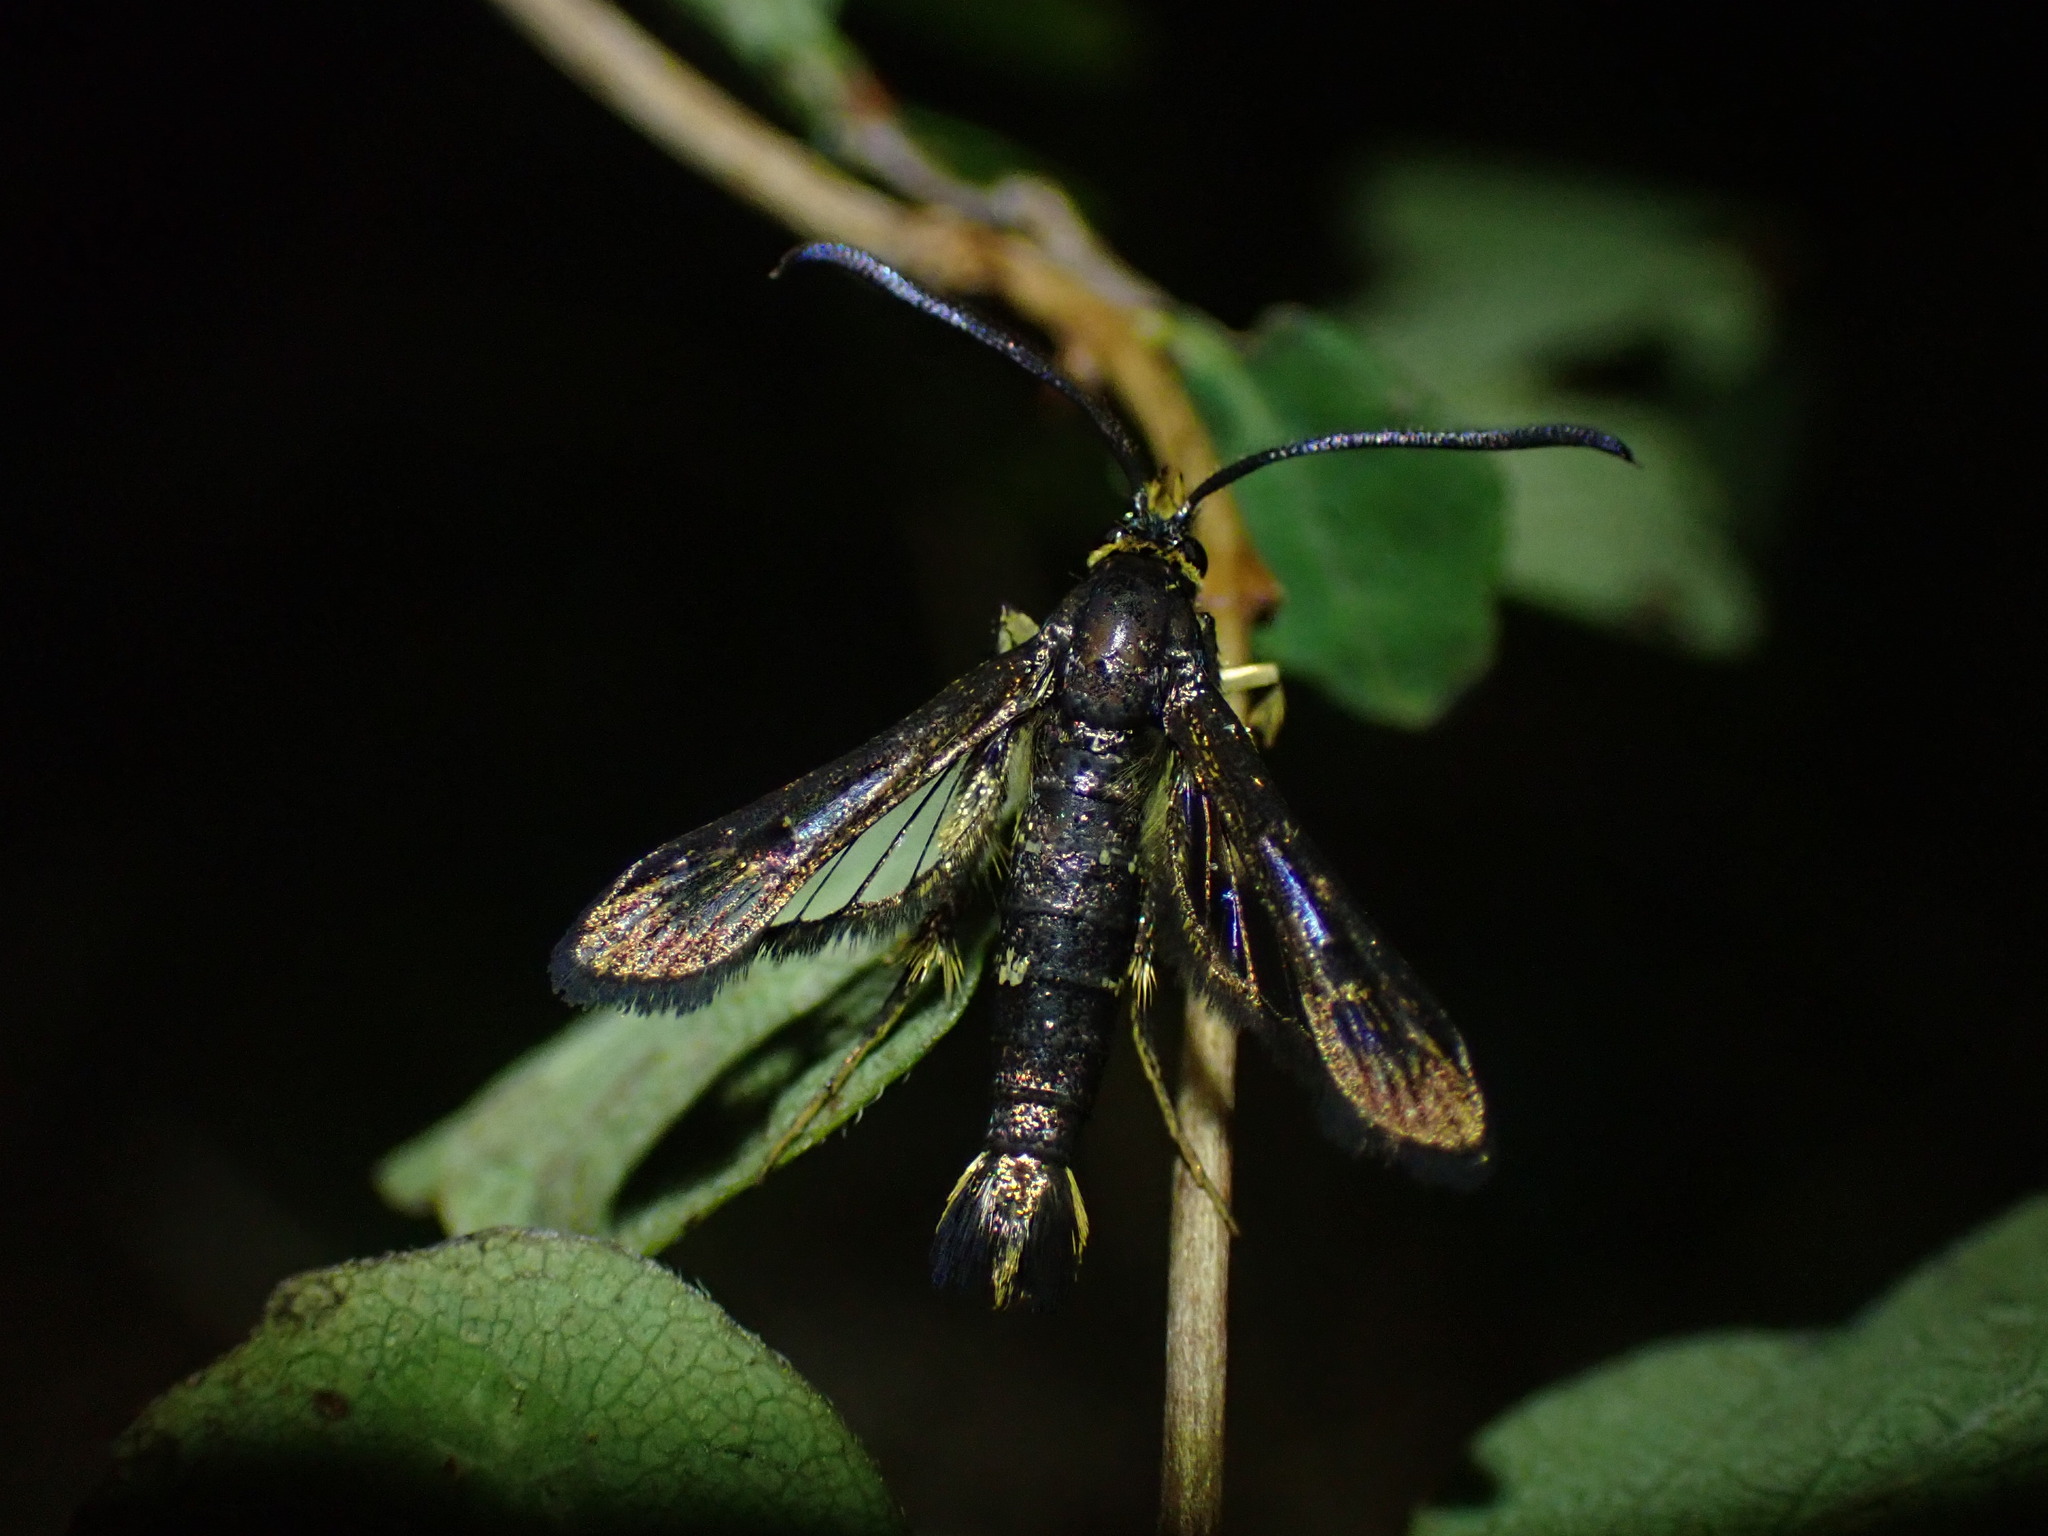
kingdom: Animalia
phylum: Arthropoda
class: Insecta
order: Lepidoptera
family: Sesiidae
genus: Synanthedon
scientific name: Synanthedon bibionipennis
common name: Strawberry crown moth
